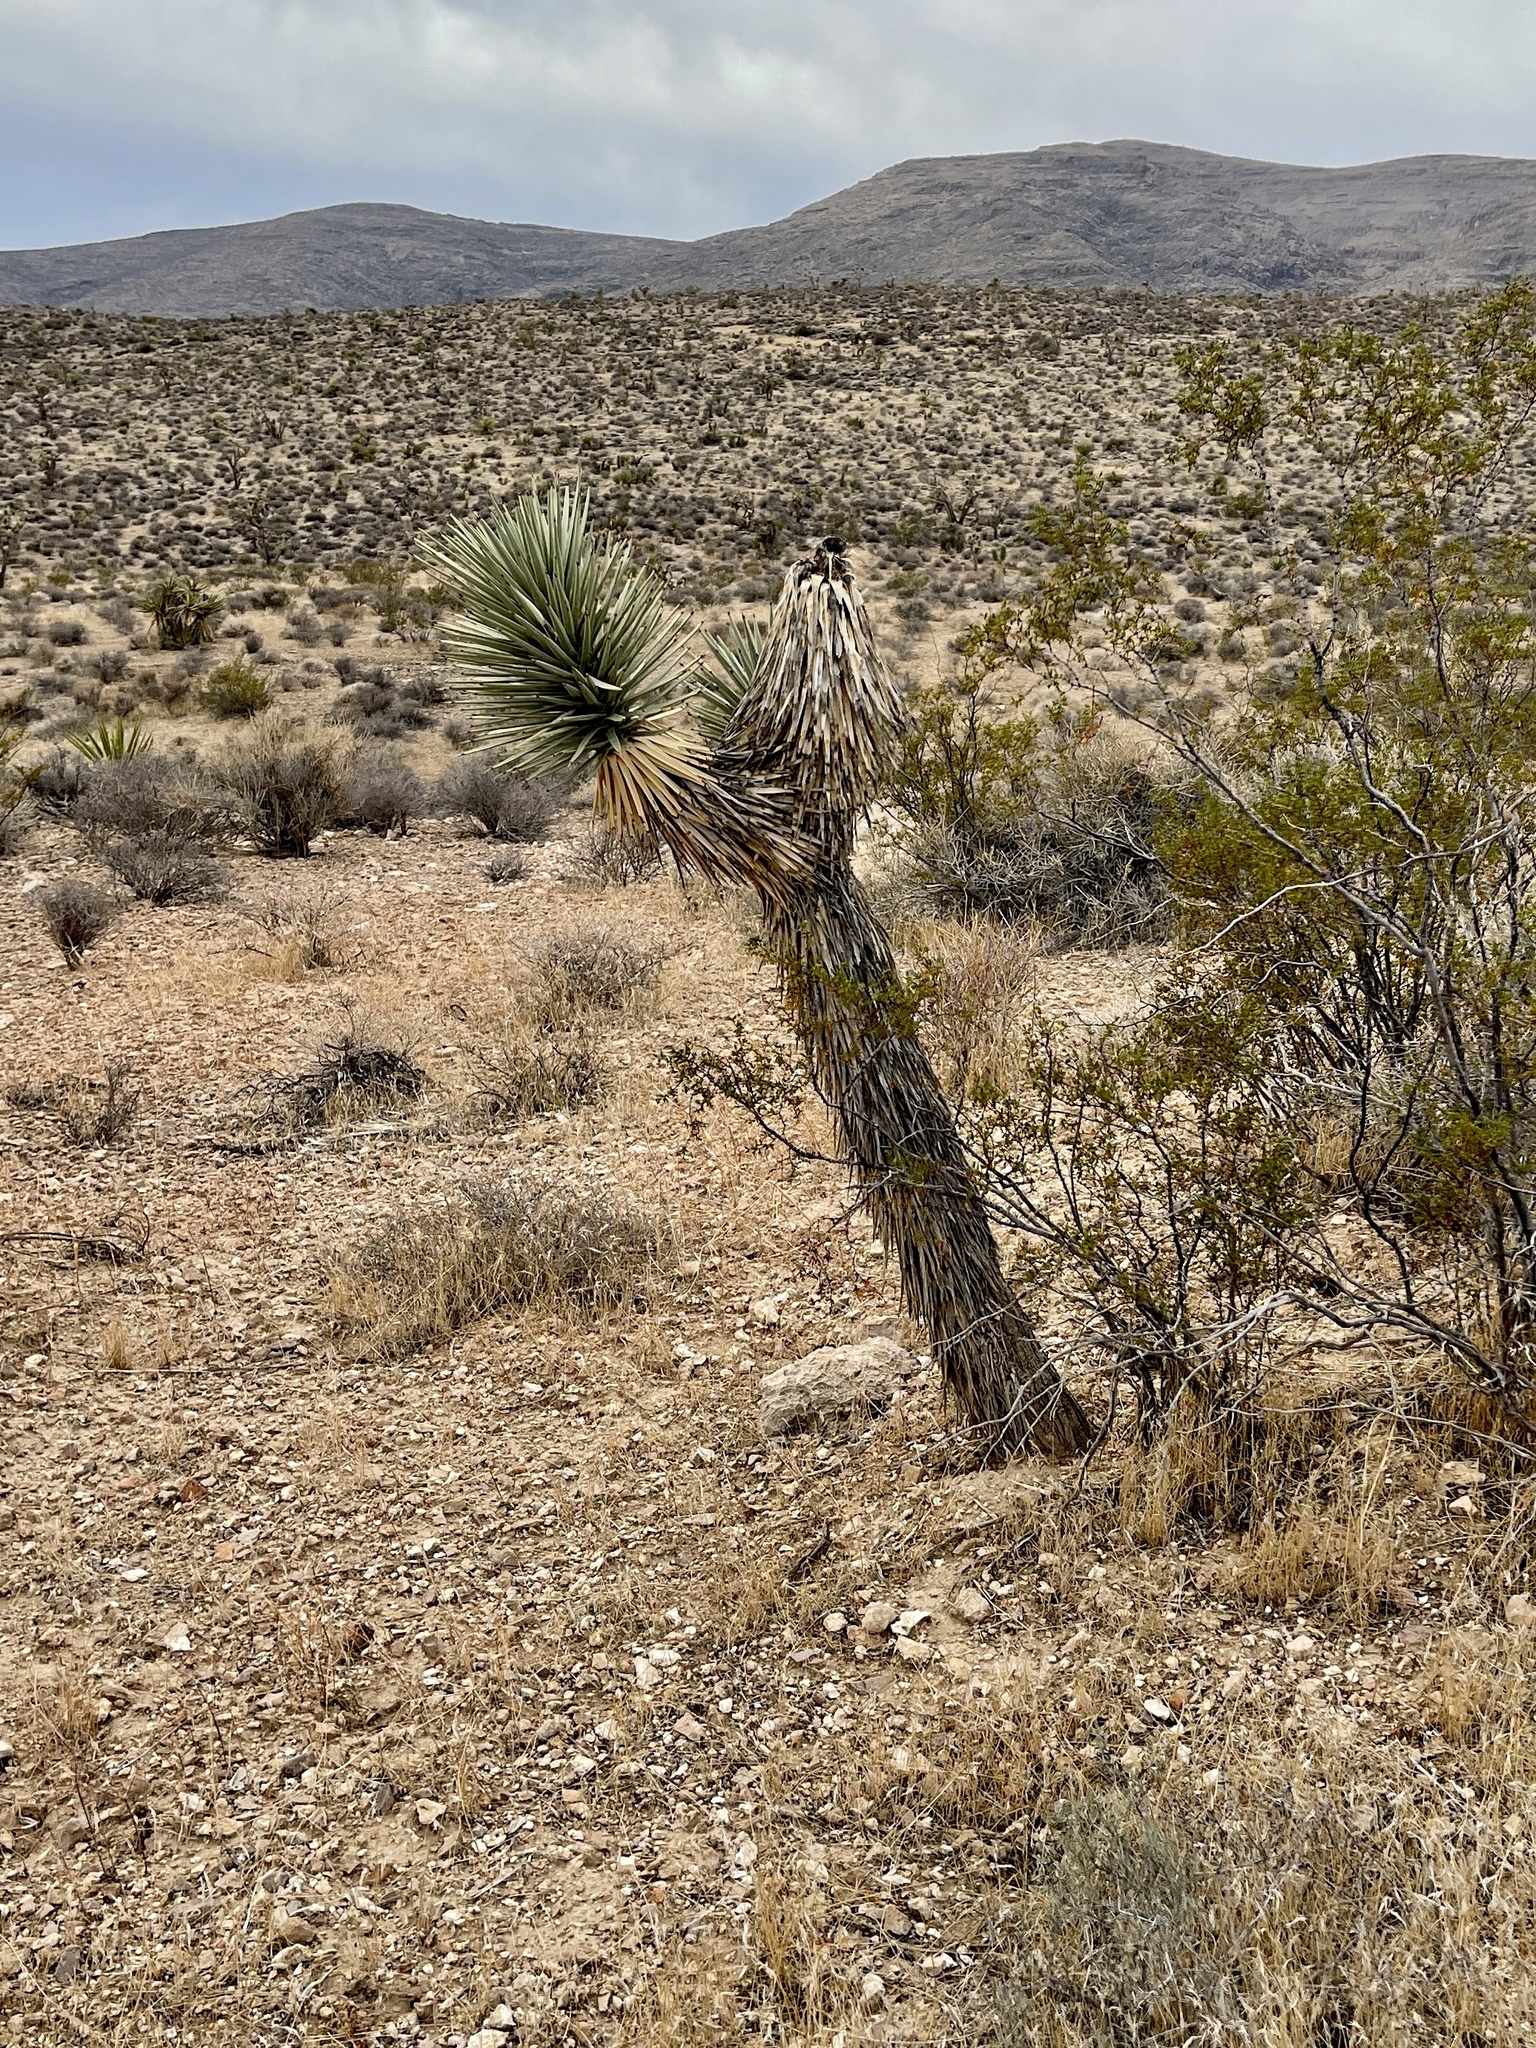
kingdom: Plantae
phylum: Tracheophyta
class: Liliopsida
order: Asparagales
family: Asparagaceae
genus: Yucca
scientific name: Yucca brevifolia
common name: Joshua tree
